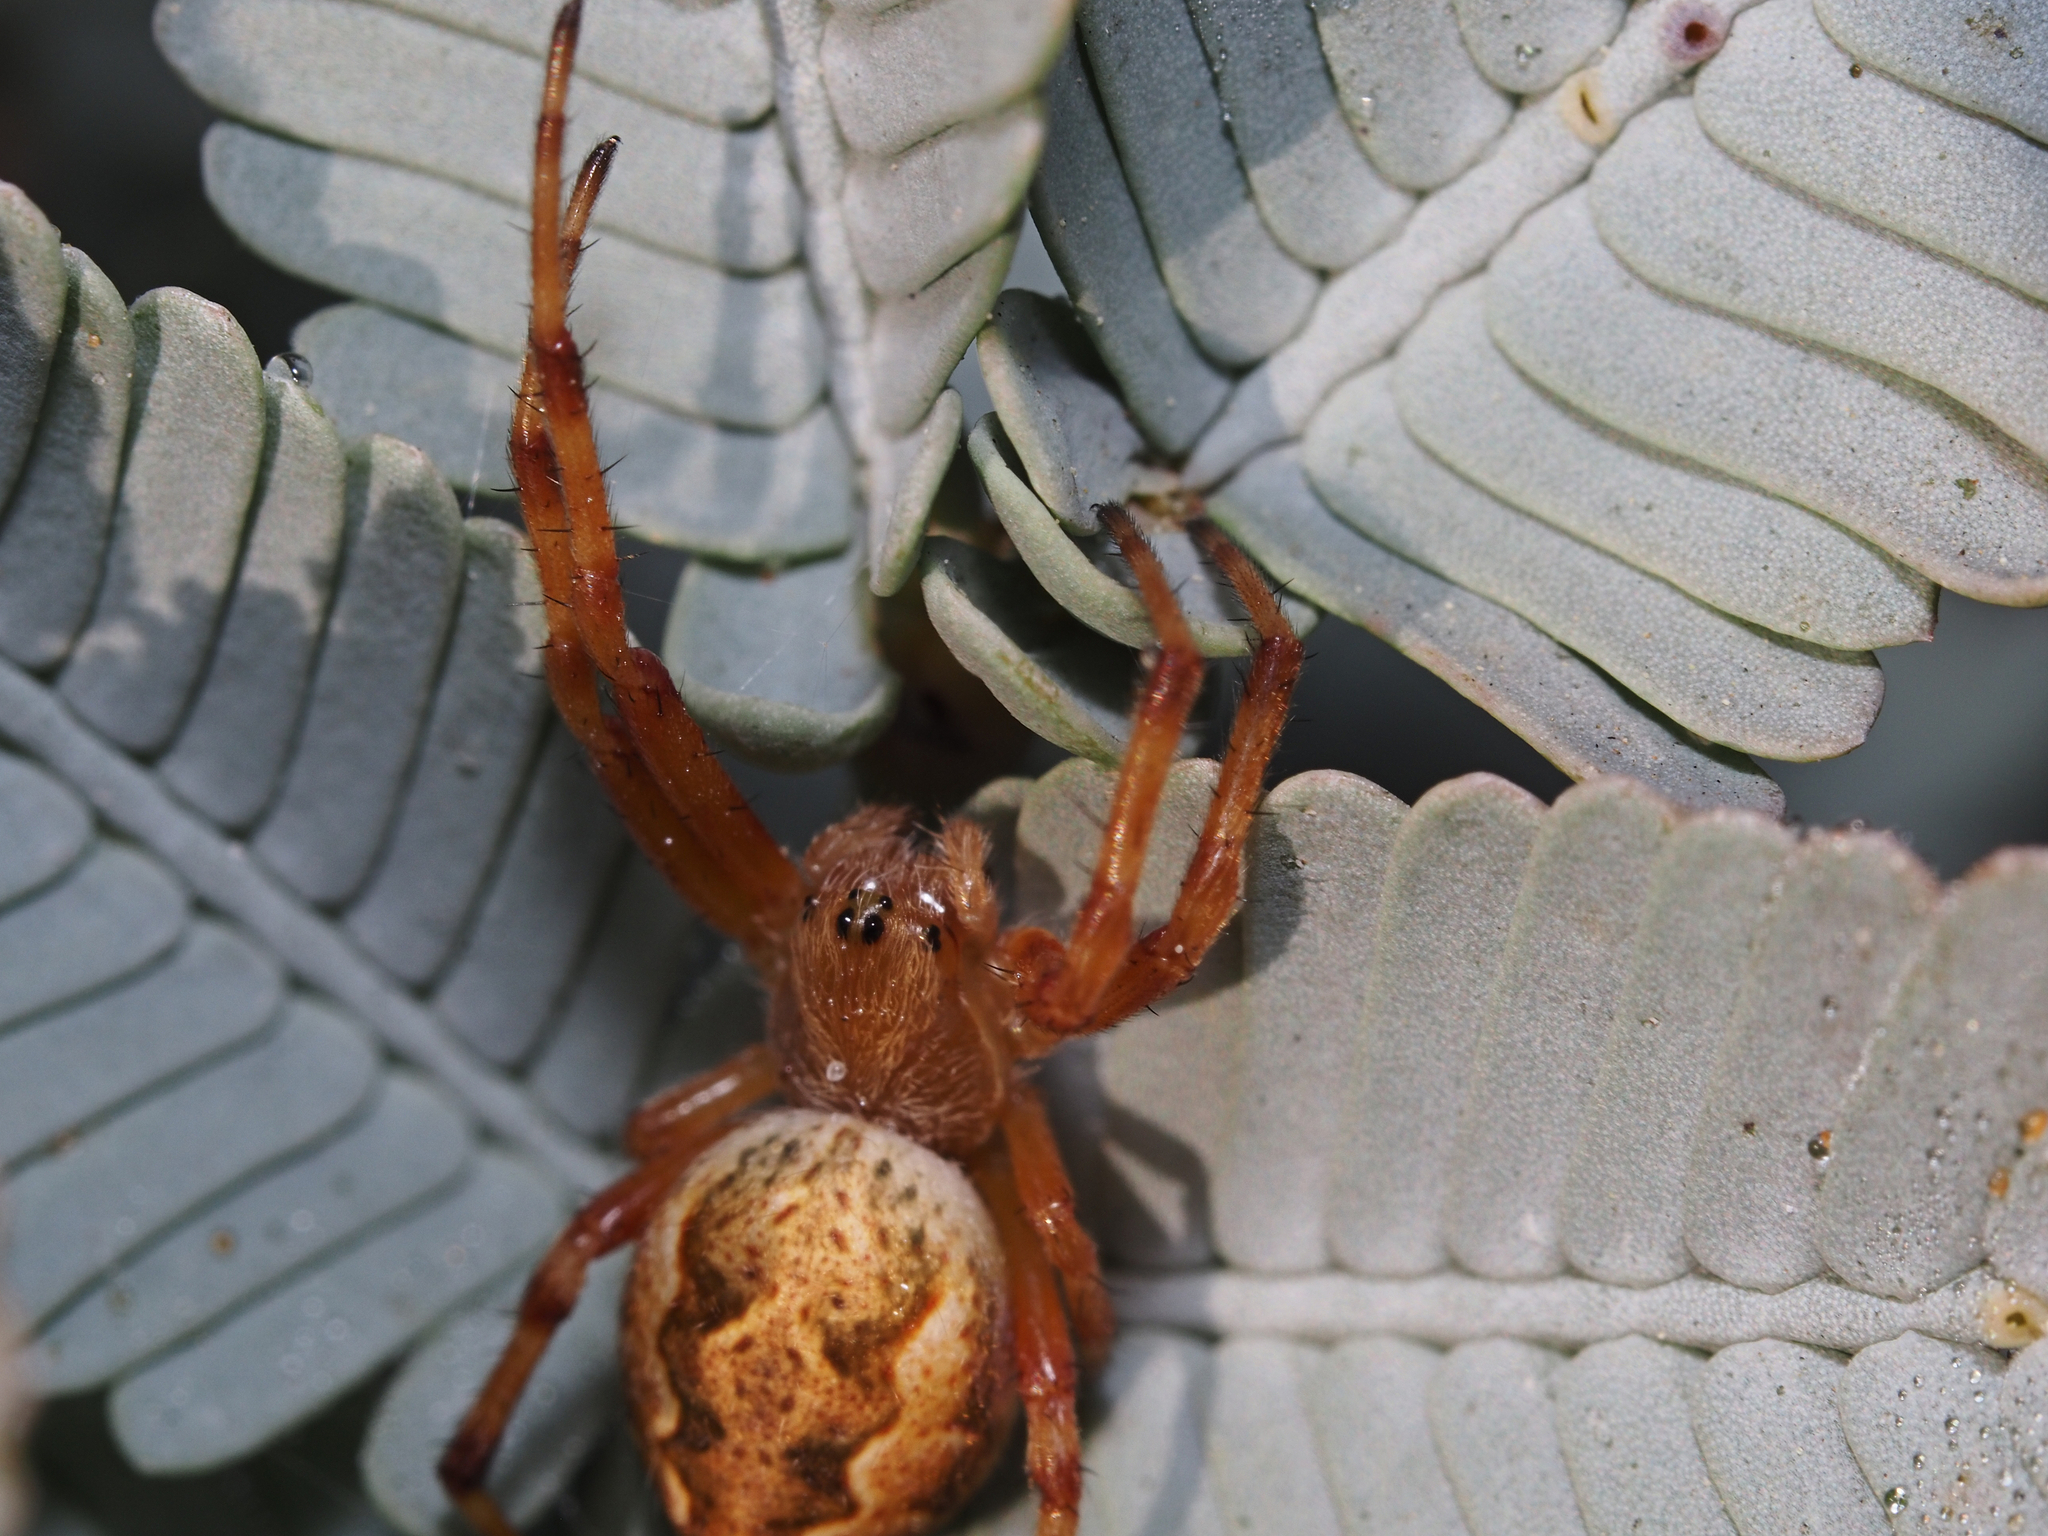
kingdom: Animalia
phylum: Arthropoda
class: Arachnida
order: Araneae
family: Araneidae
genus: Salsa
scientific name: Salsa fuliginata
